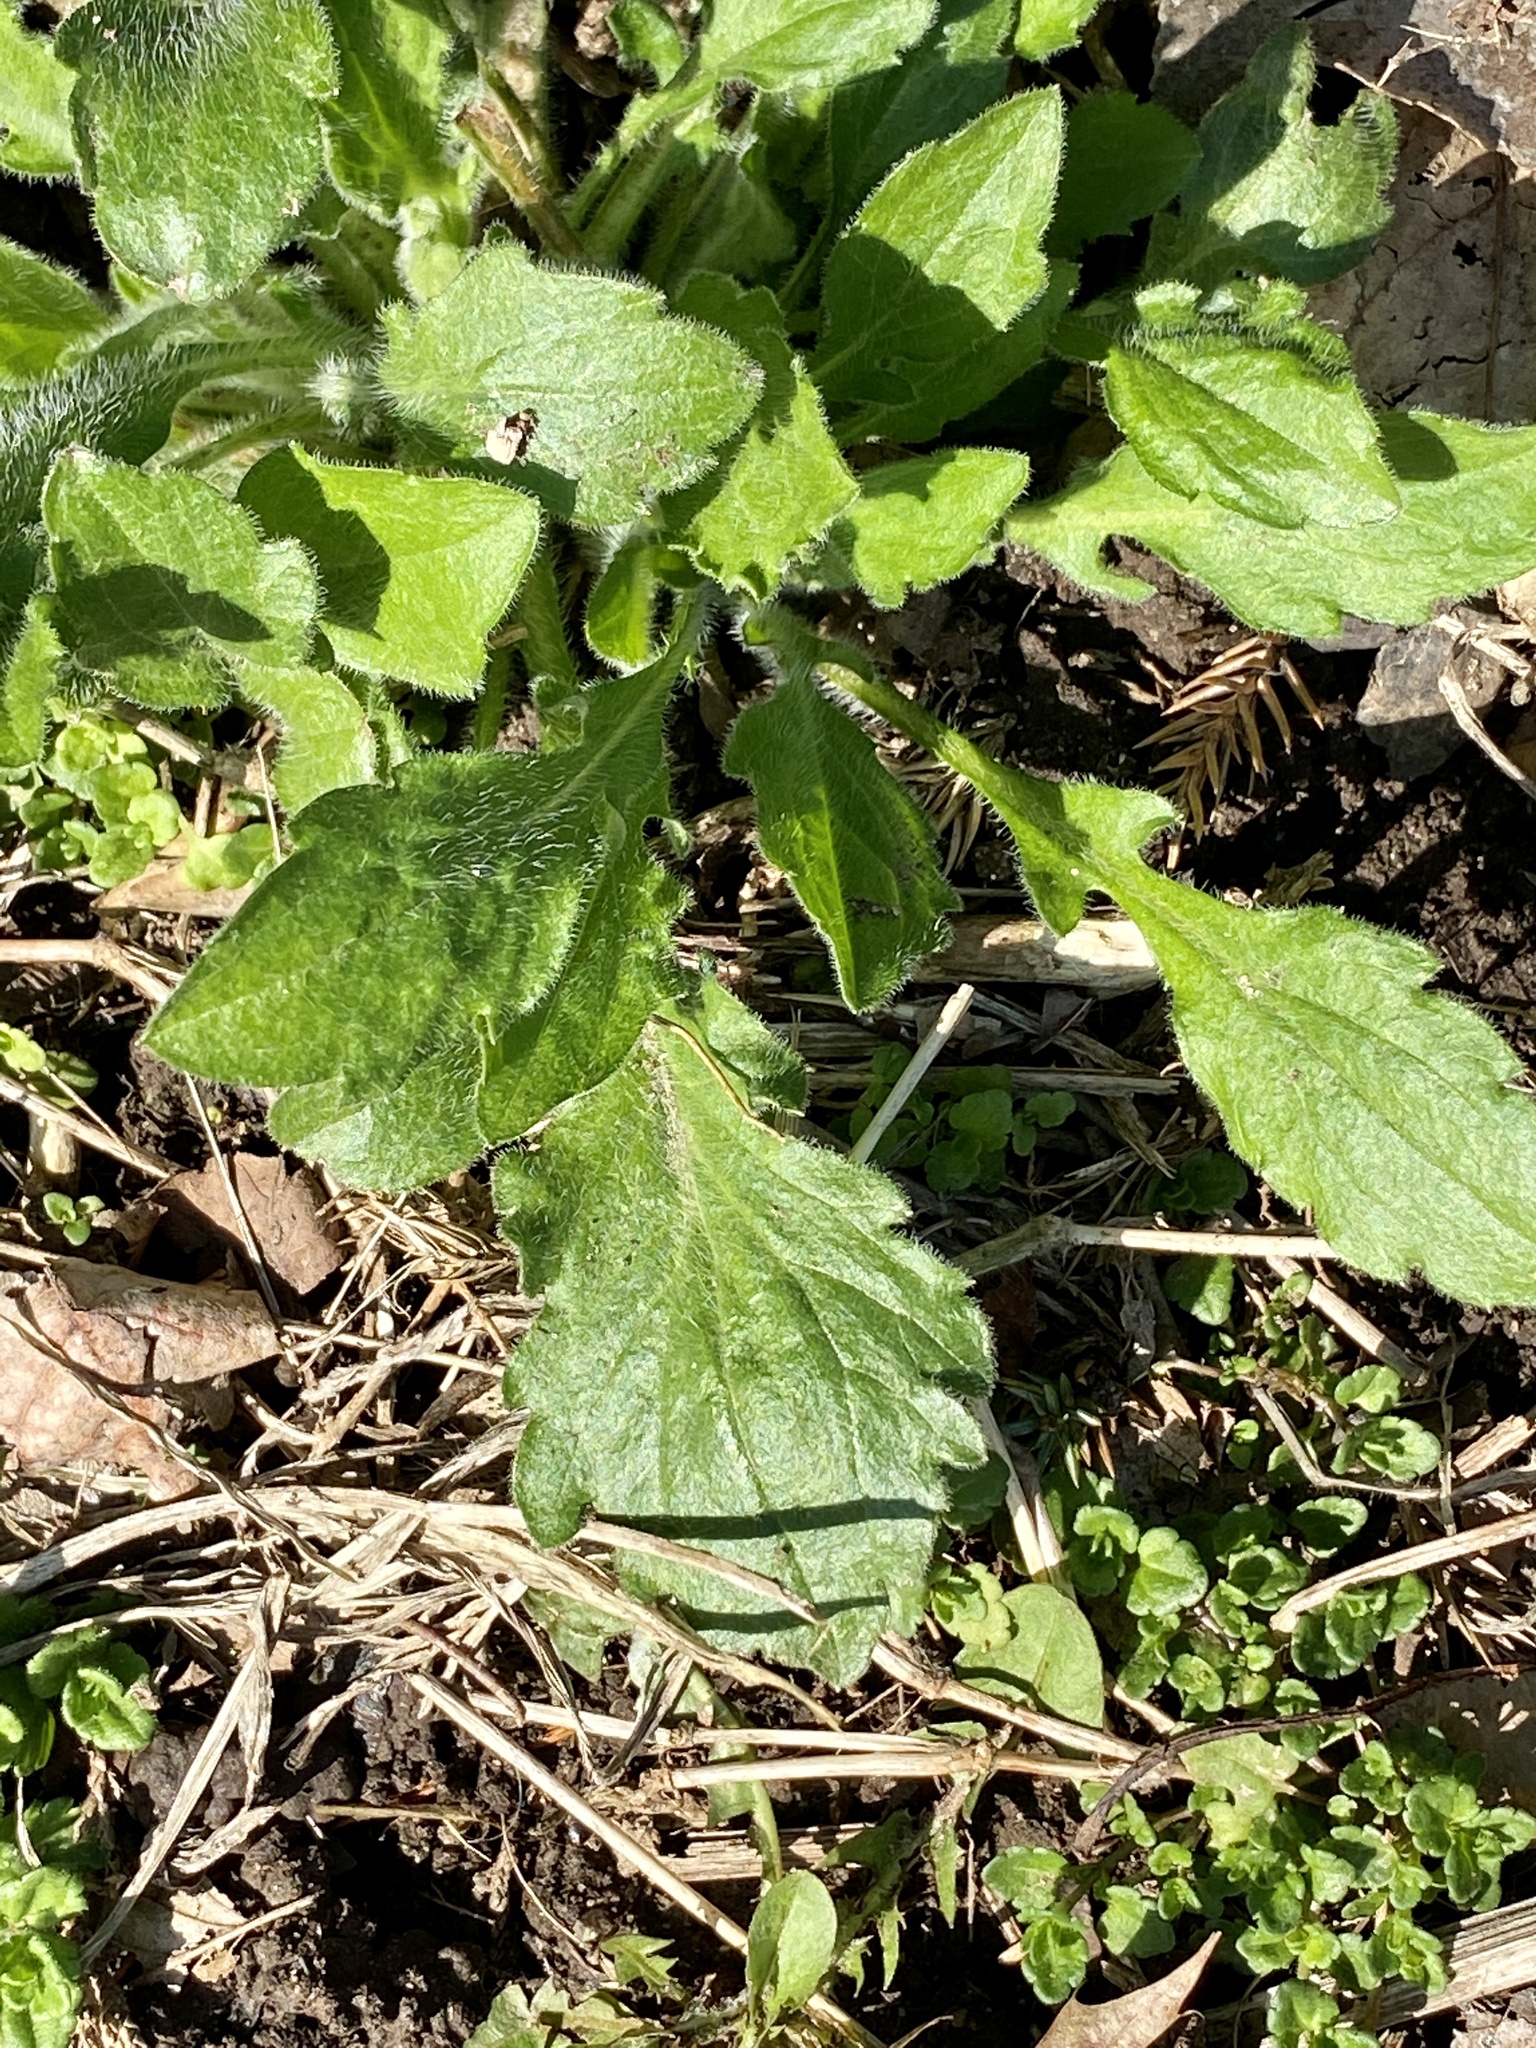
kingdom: Plantae
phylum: Tracheophyta
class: Magnoliopsida
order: Asterales
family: Asteraceae
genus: Erigeron
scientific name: Erigeron annuus
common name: Tall fleabane
